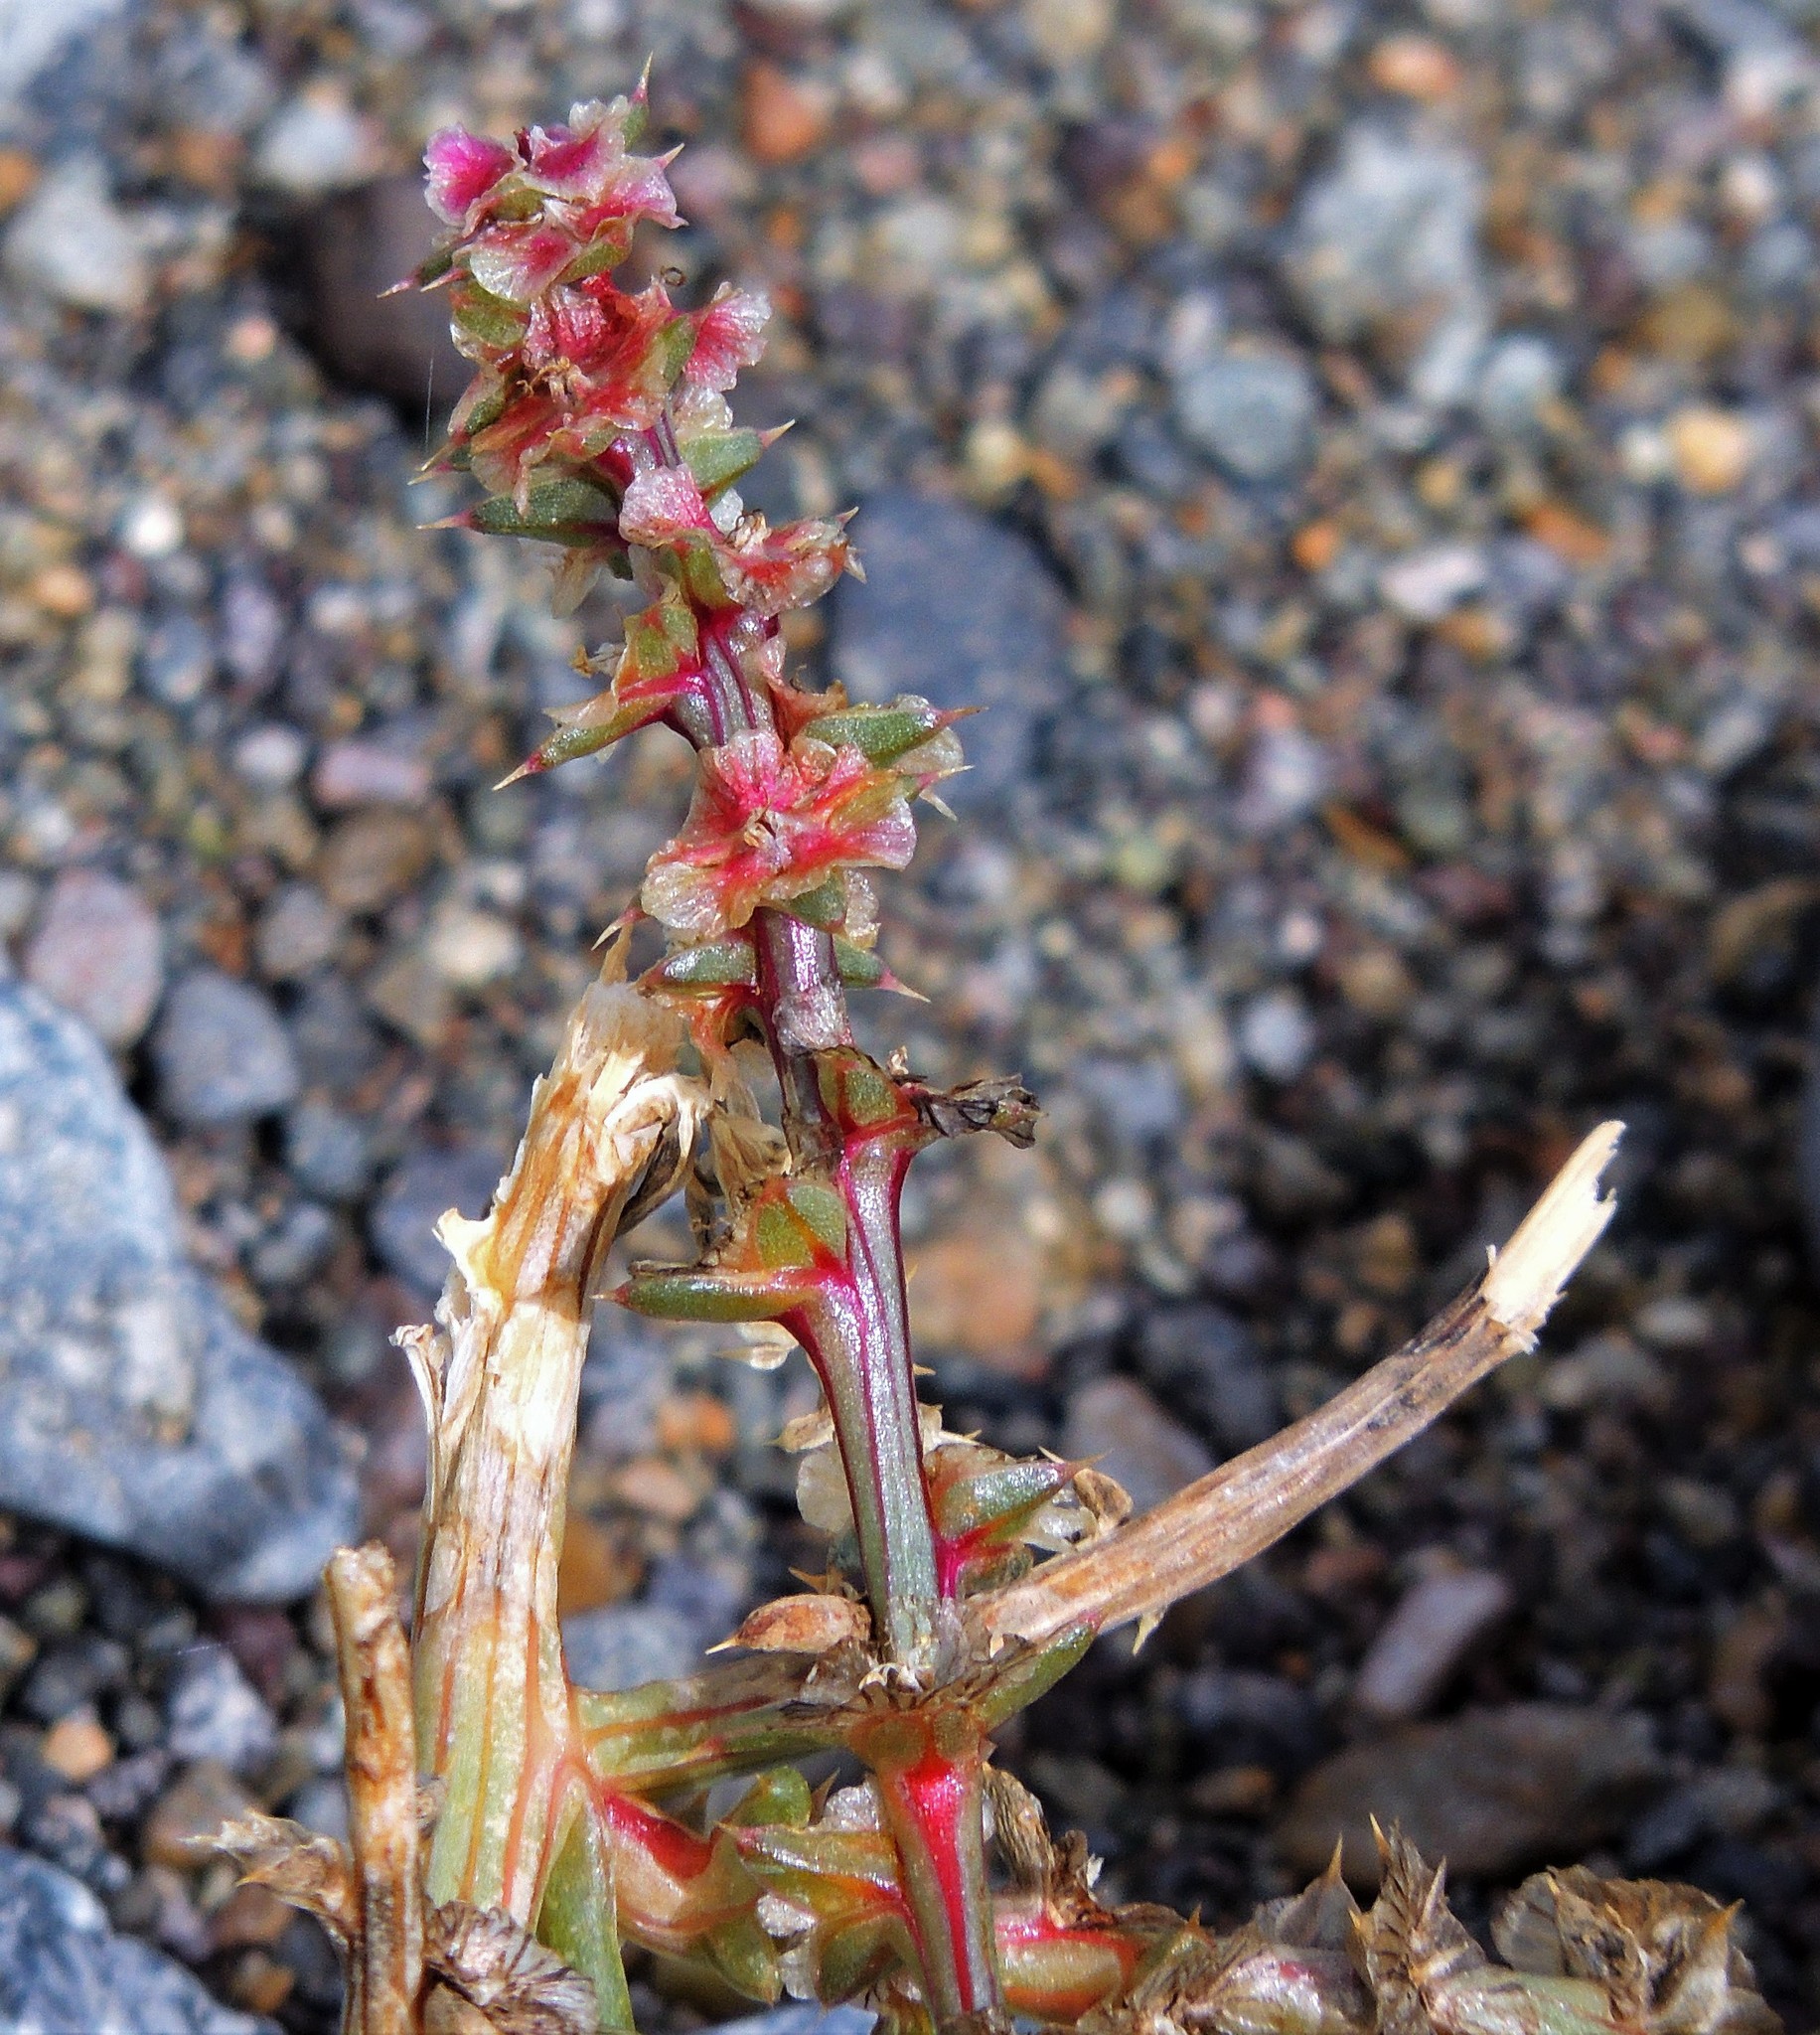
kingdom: Plantae
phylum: Tracheophyta
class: Magnoliopsida
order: Caryophyllales
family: Amaranthaceae
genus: Salsola
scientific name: Salsola kali
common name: Saltwort
